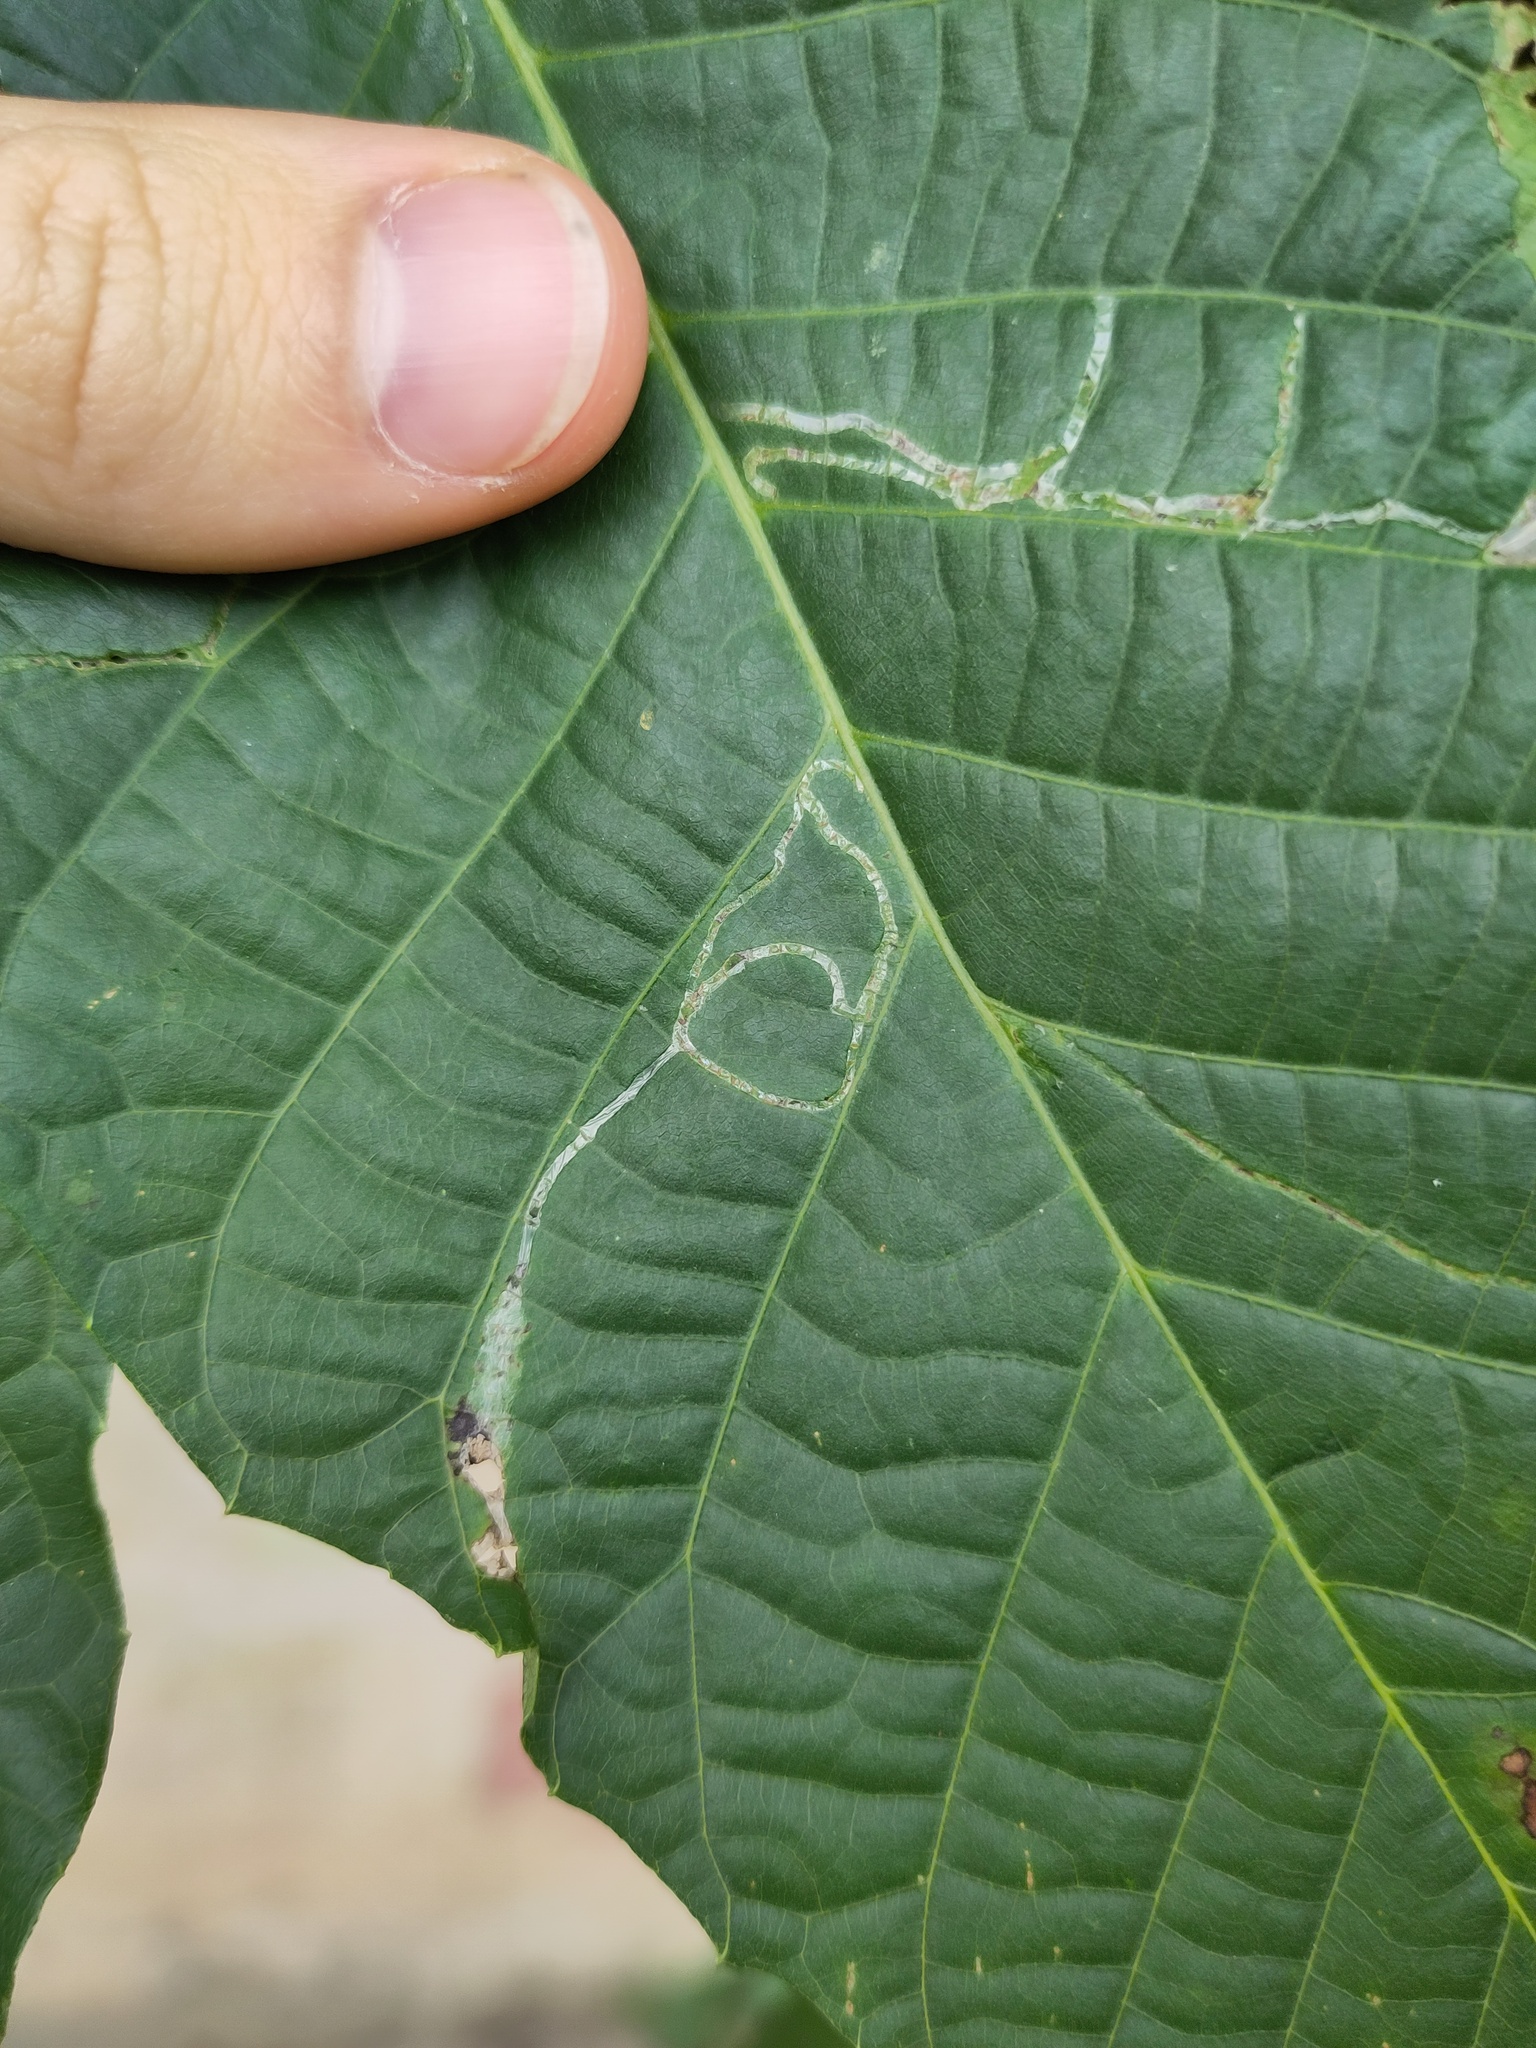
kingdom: Animalia
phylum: Arthropoda
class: Insecta
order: Lepidoptera
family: Gracillariidae
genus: Caloptilia
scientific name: Caloptilia roscipennella
